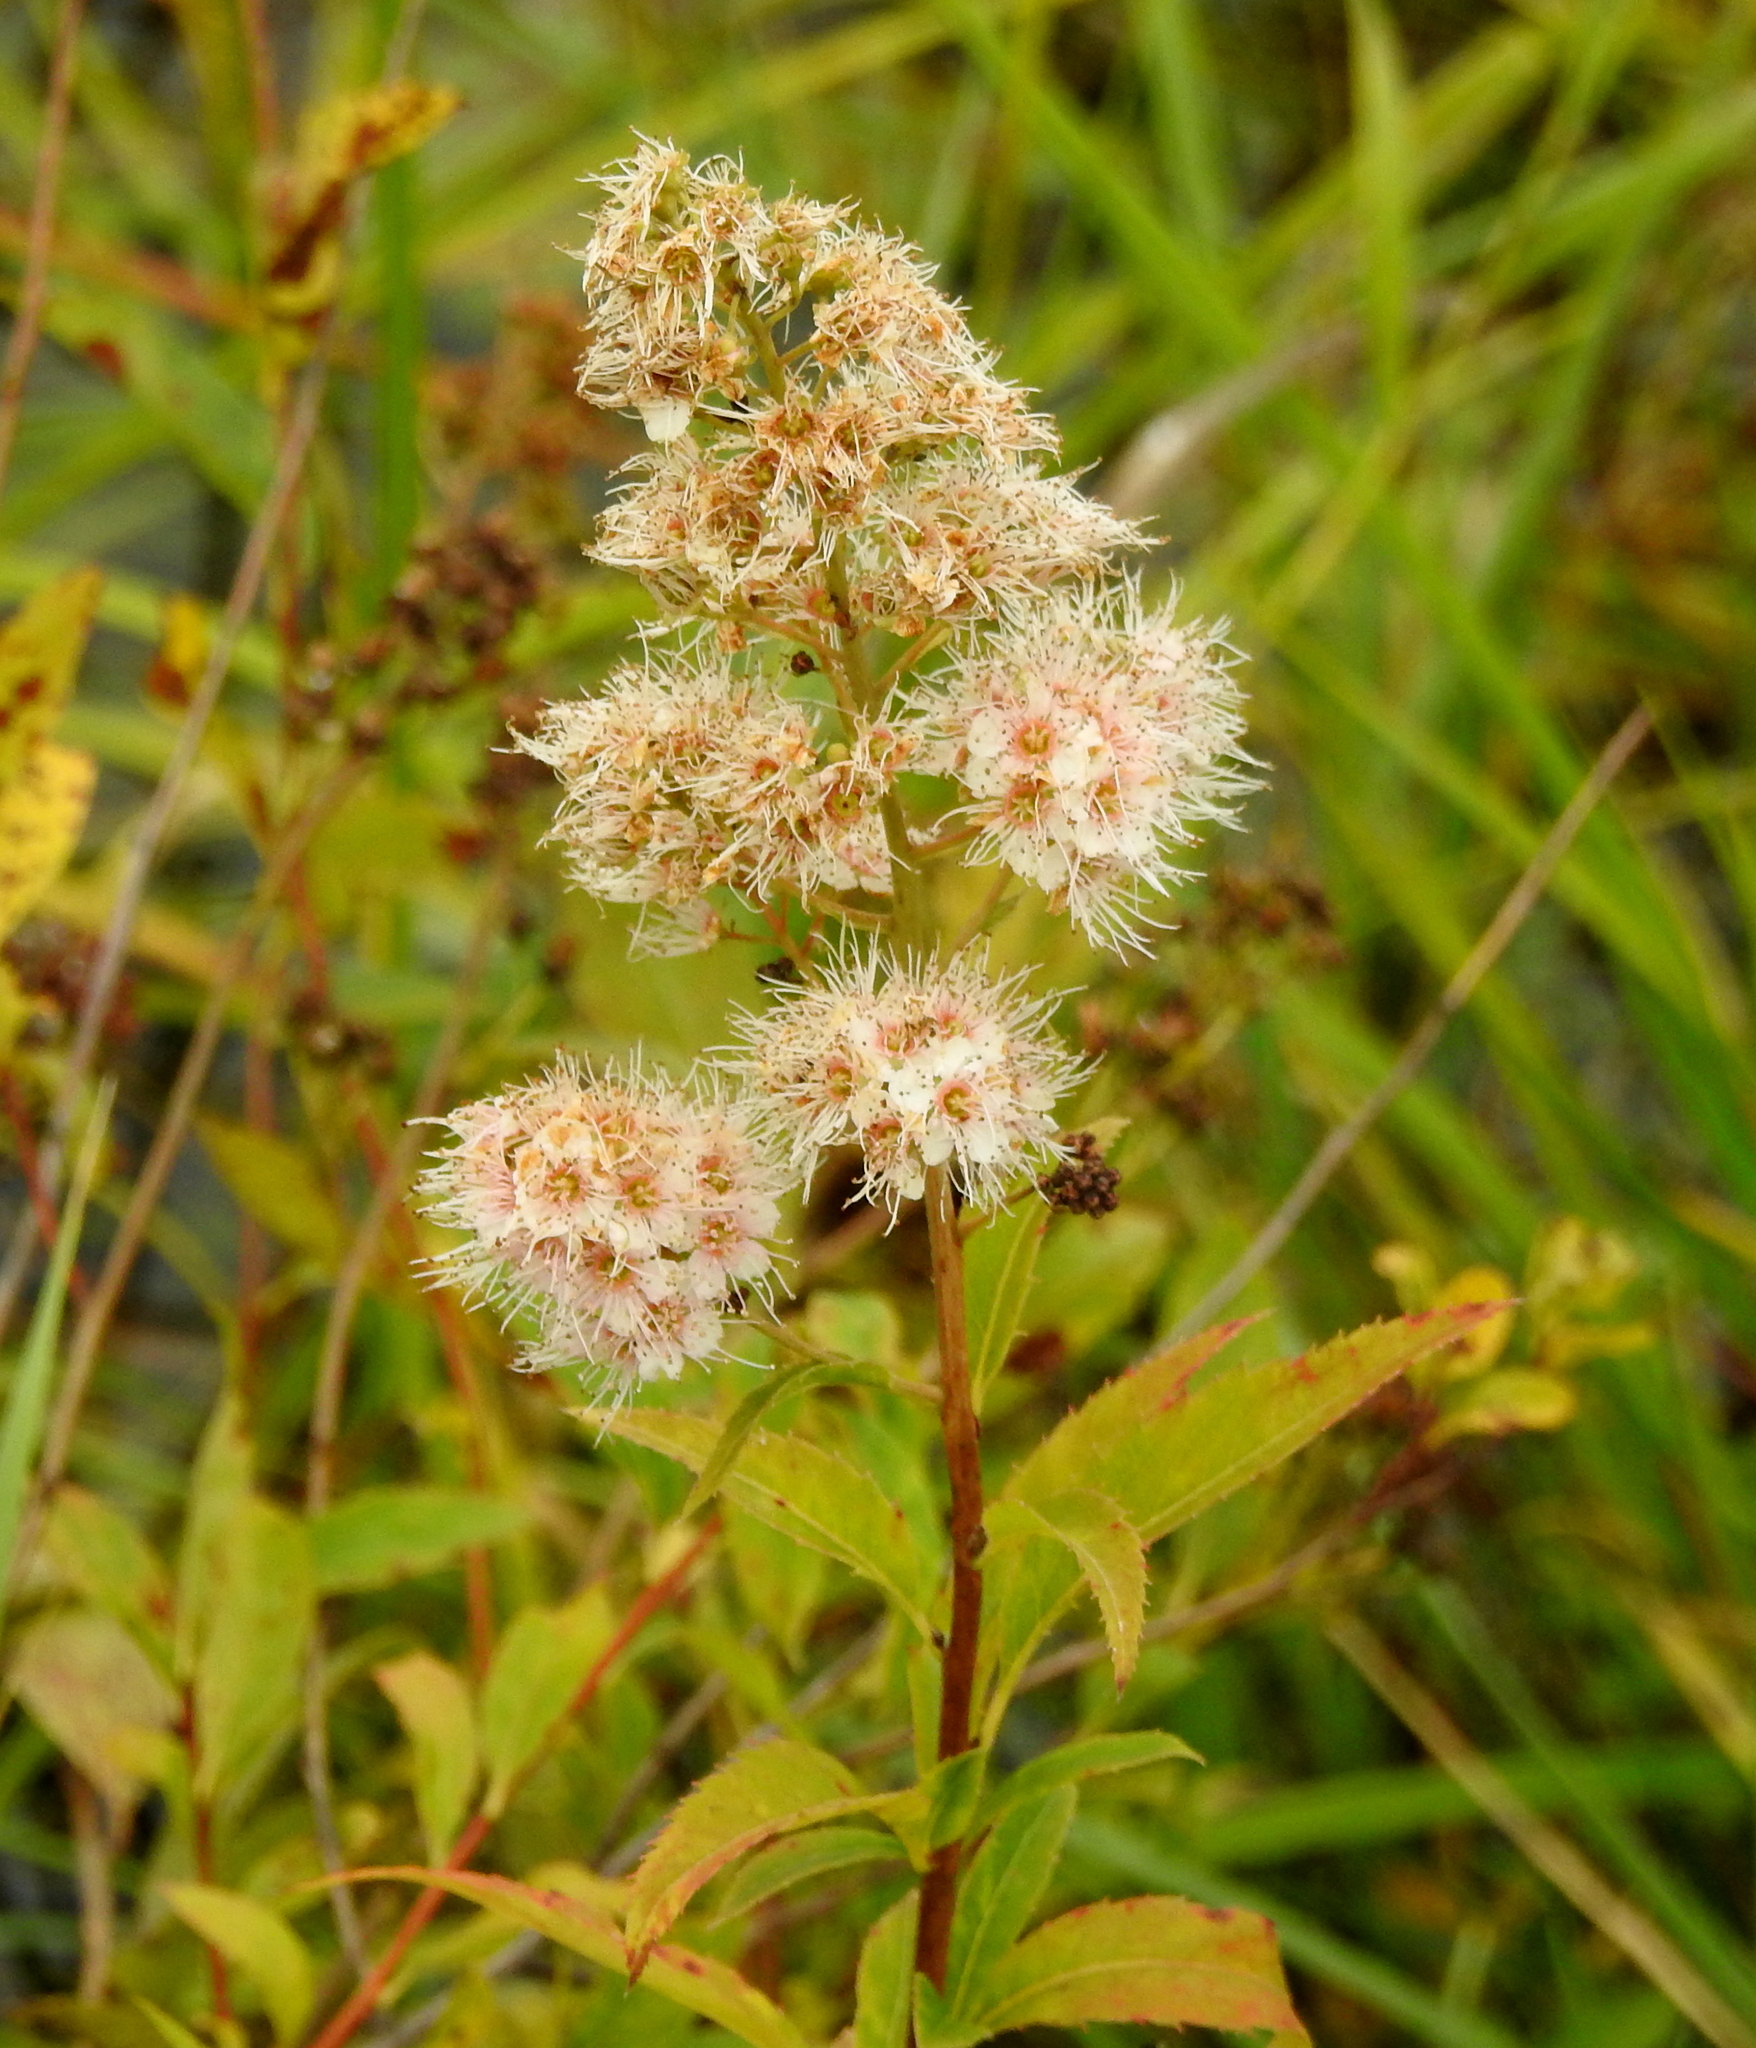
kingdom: Plantae
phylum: Tracheophyta
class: Magnoliopsida
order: Rosales
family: Rosaceae
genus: Spiraea
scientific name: Spiraea salicifolia
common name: Bridewort
